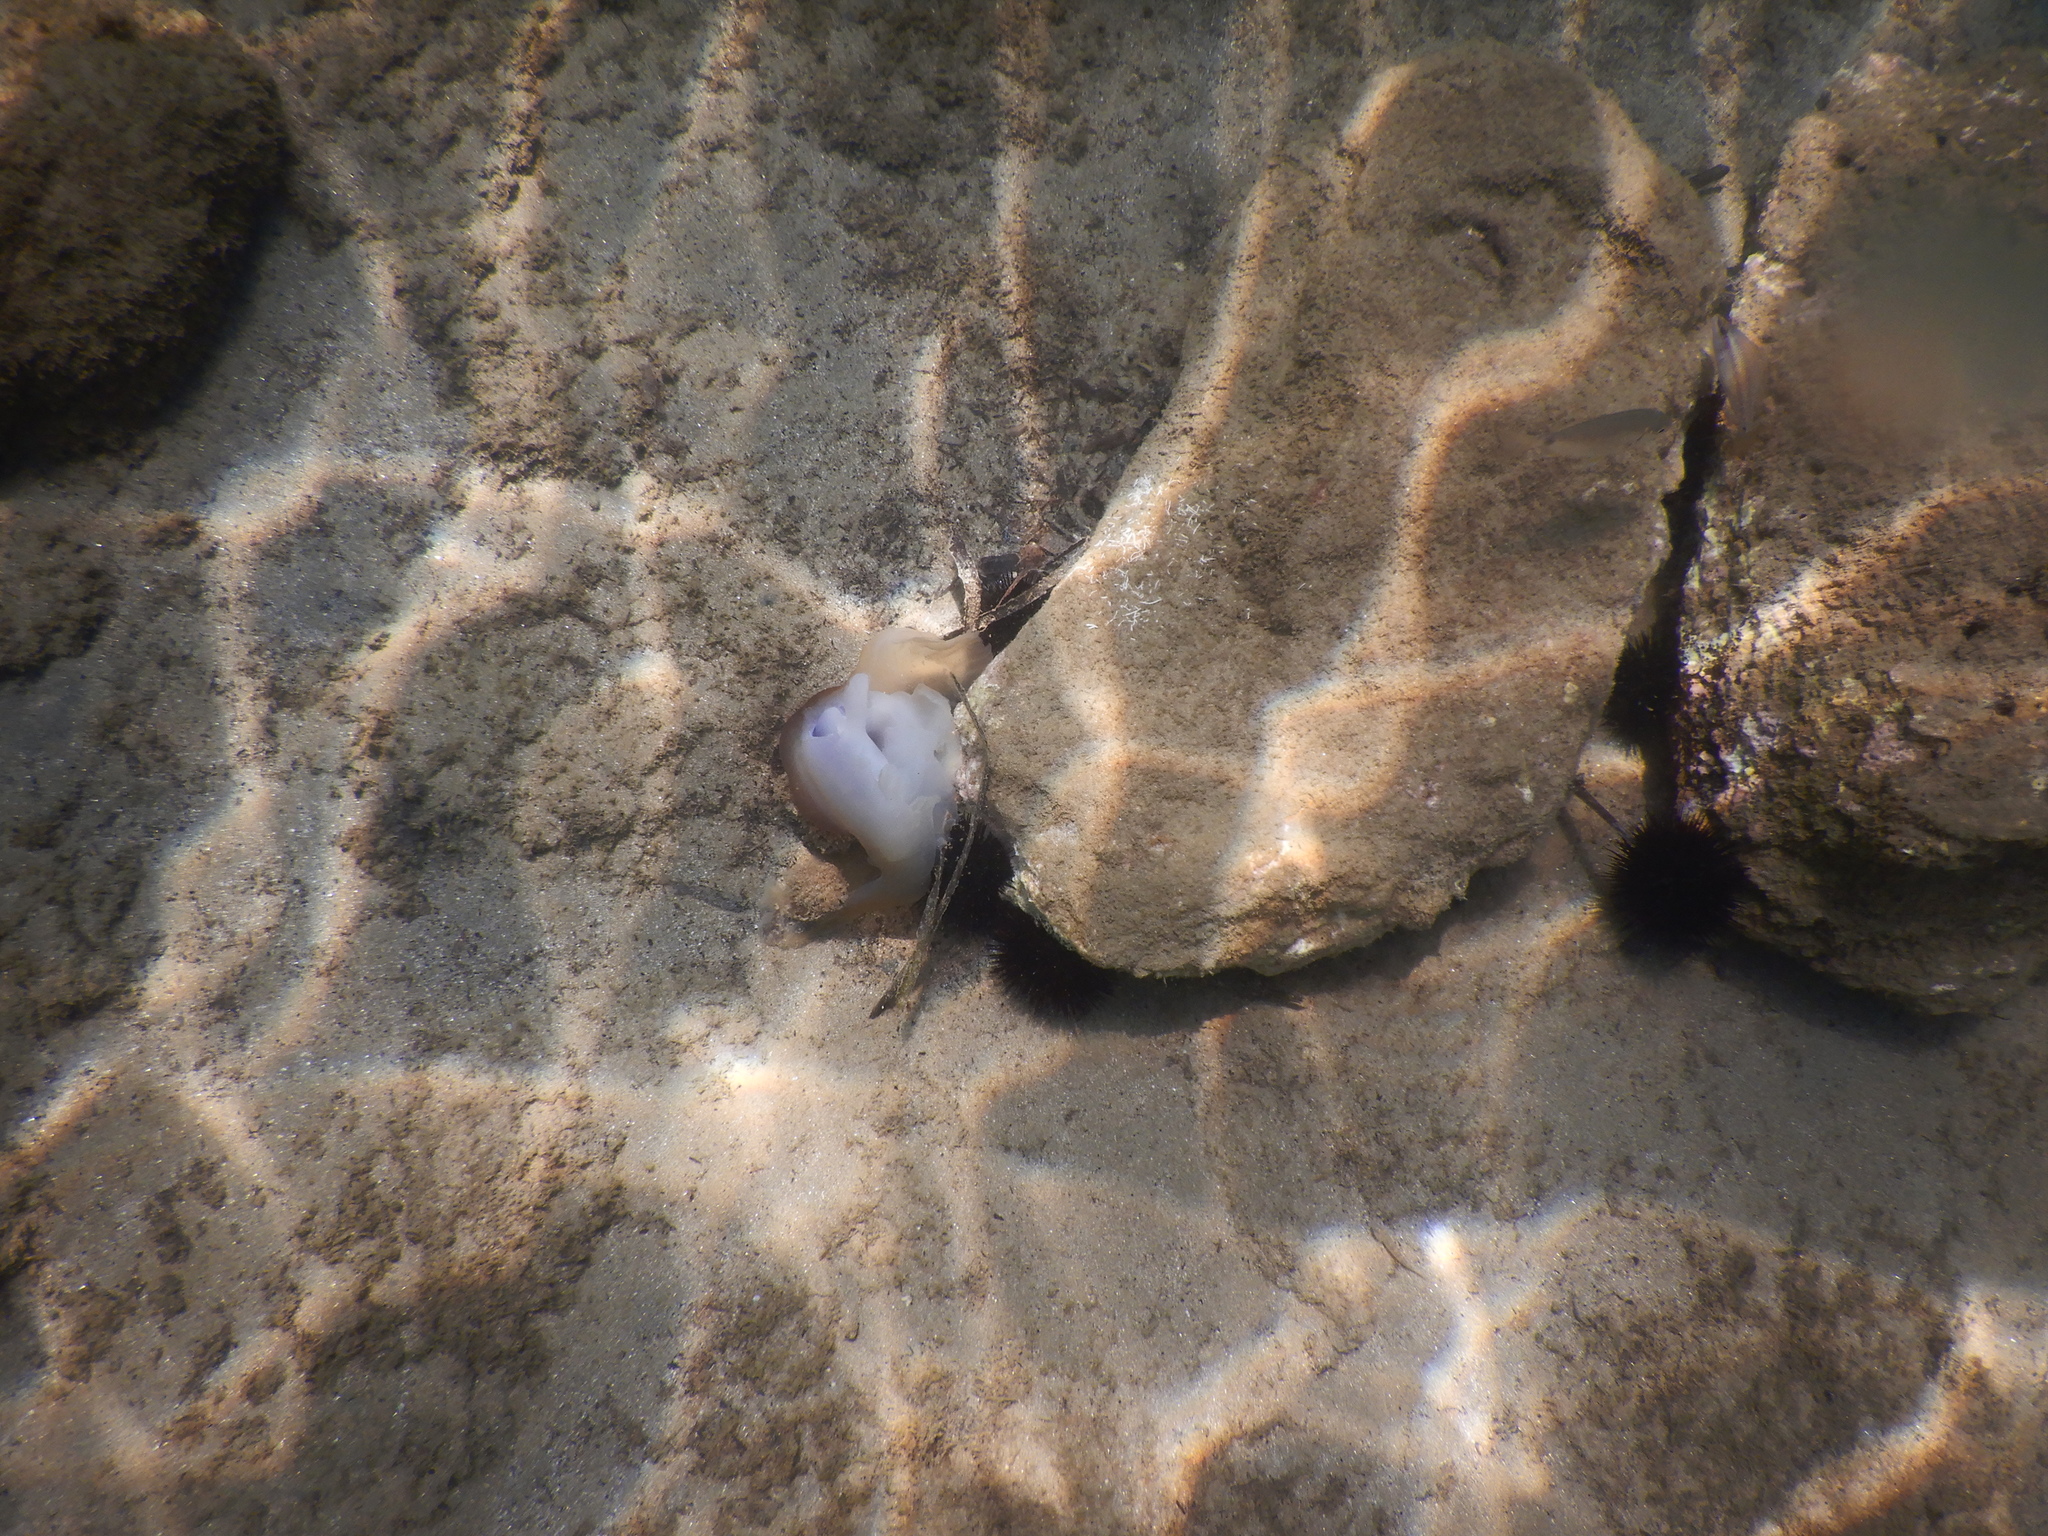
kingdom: Animalia
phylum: Cnidaria
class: Scyphozoa
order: Rhizostomeae
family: Cepheidae
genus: Cotylorhiza
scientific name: Cotylorhiza tuberculata
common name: Mediterranean jelly
